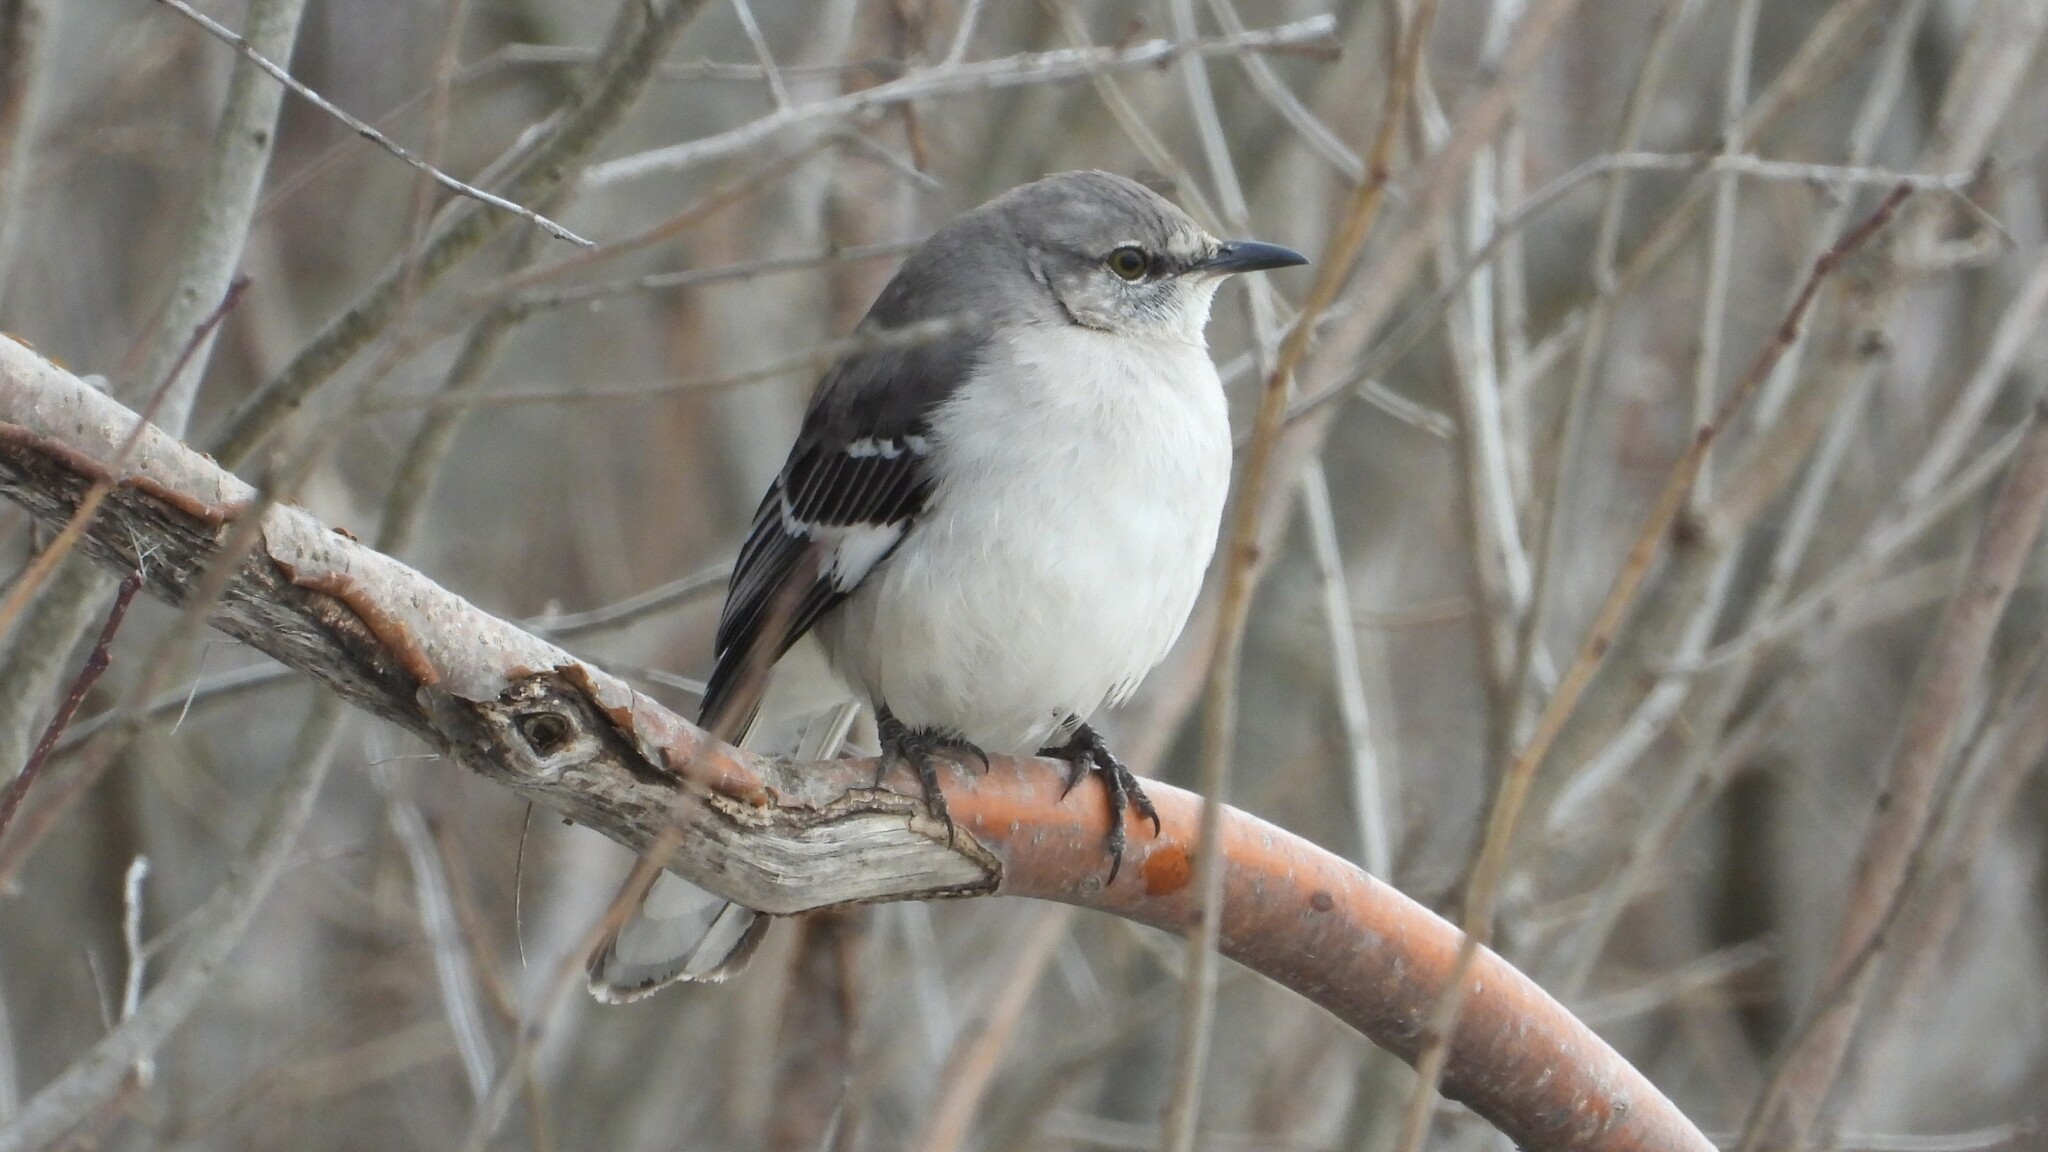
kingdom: Animalia
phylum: Chordata
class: Aves
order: Passeriformes
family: Mimidae
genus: Mimus
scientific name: Mimus polyglottos
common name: Northern mockingbird
